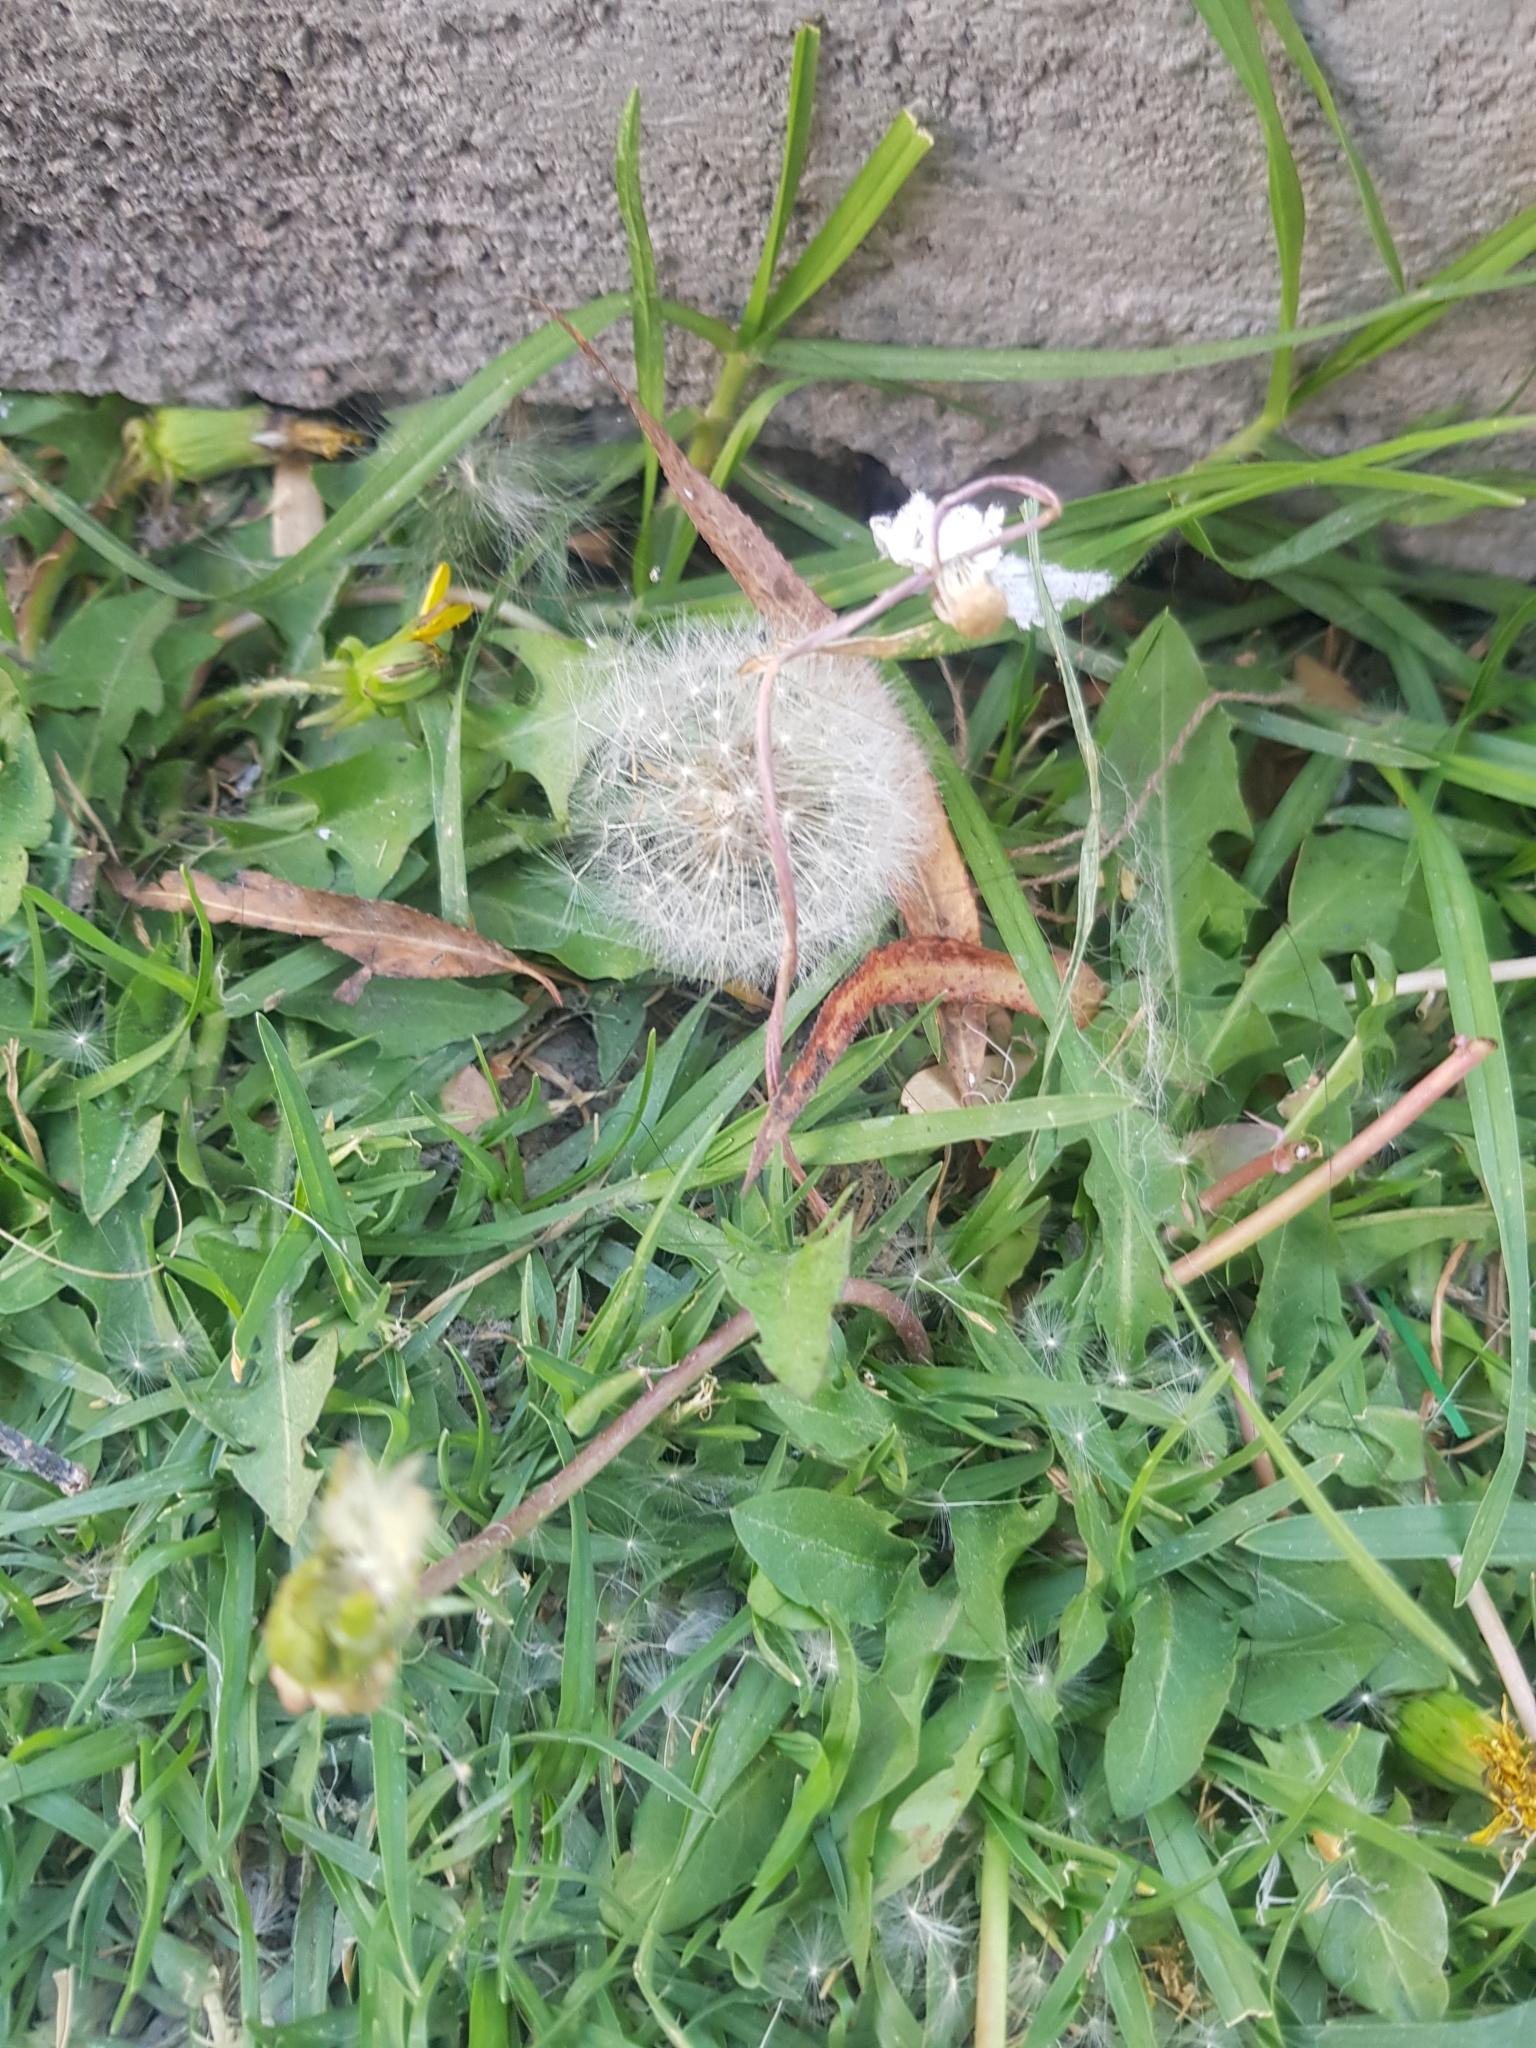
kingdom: Plantae
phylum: Tracheophyta
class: Magnoliopsida
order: Asterales
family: Asteraceae
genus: Taraxacum
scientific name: Taraxacum officinale
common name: Common dandelion
